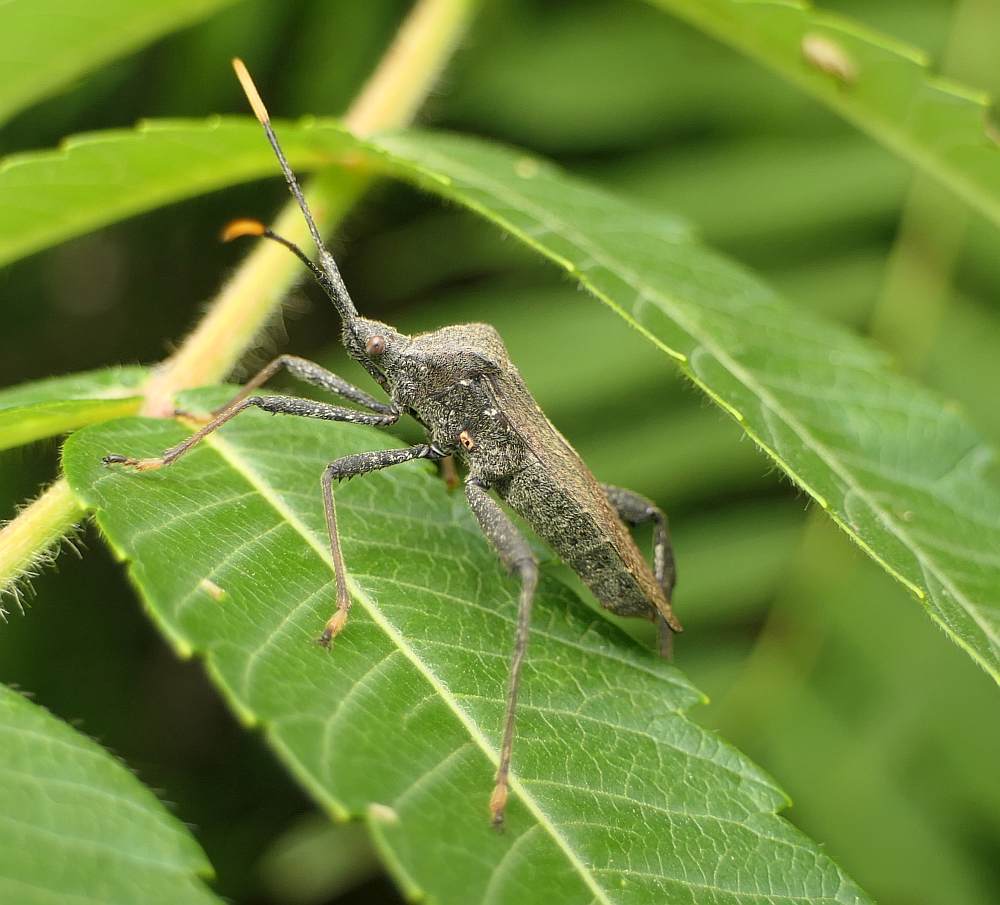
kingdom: Animalia
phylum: Arthropoda
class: Insecta
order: Hemiptera
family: Coreidae
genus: Acanthocephala
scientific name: Acanthocephala terminalis
